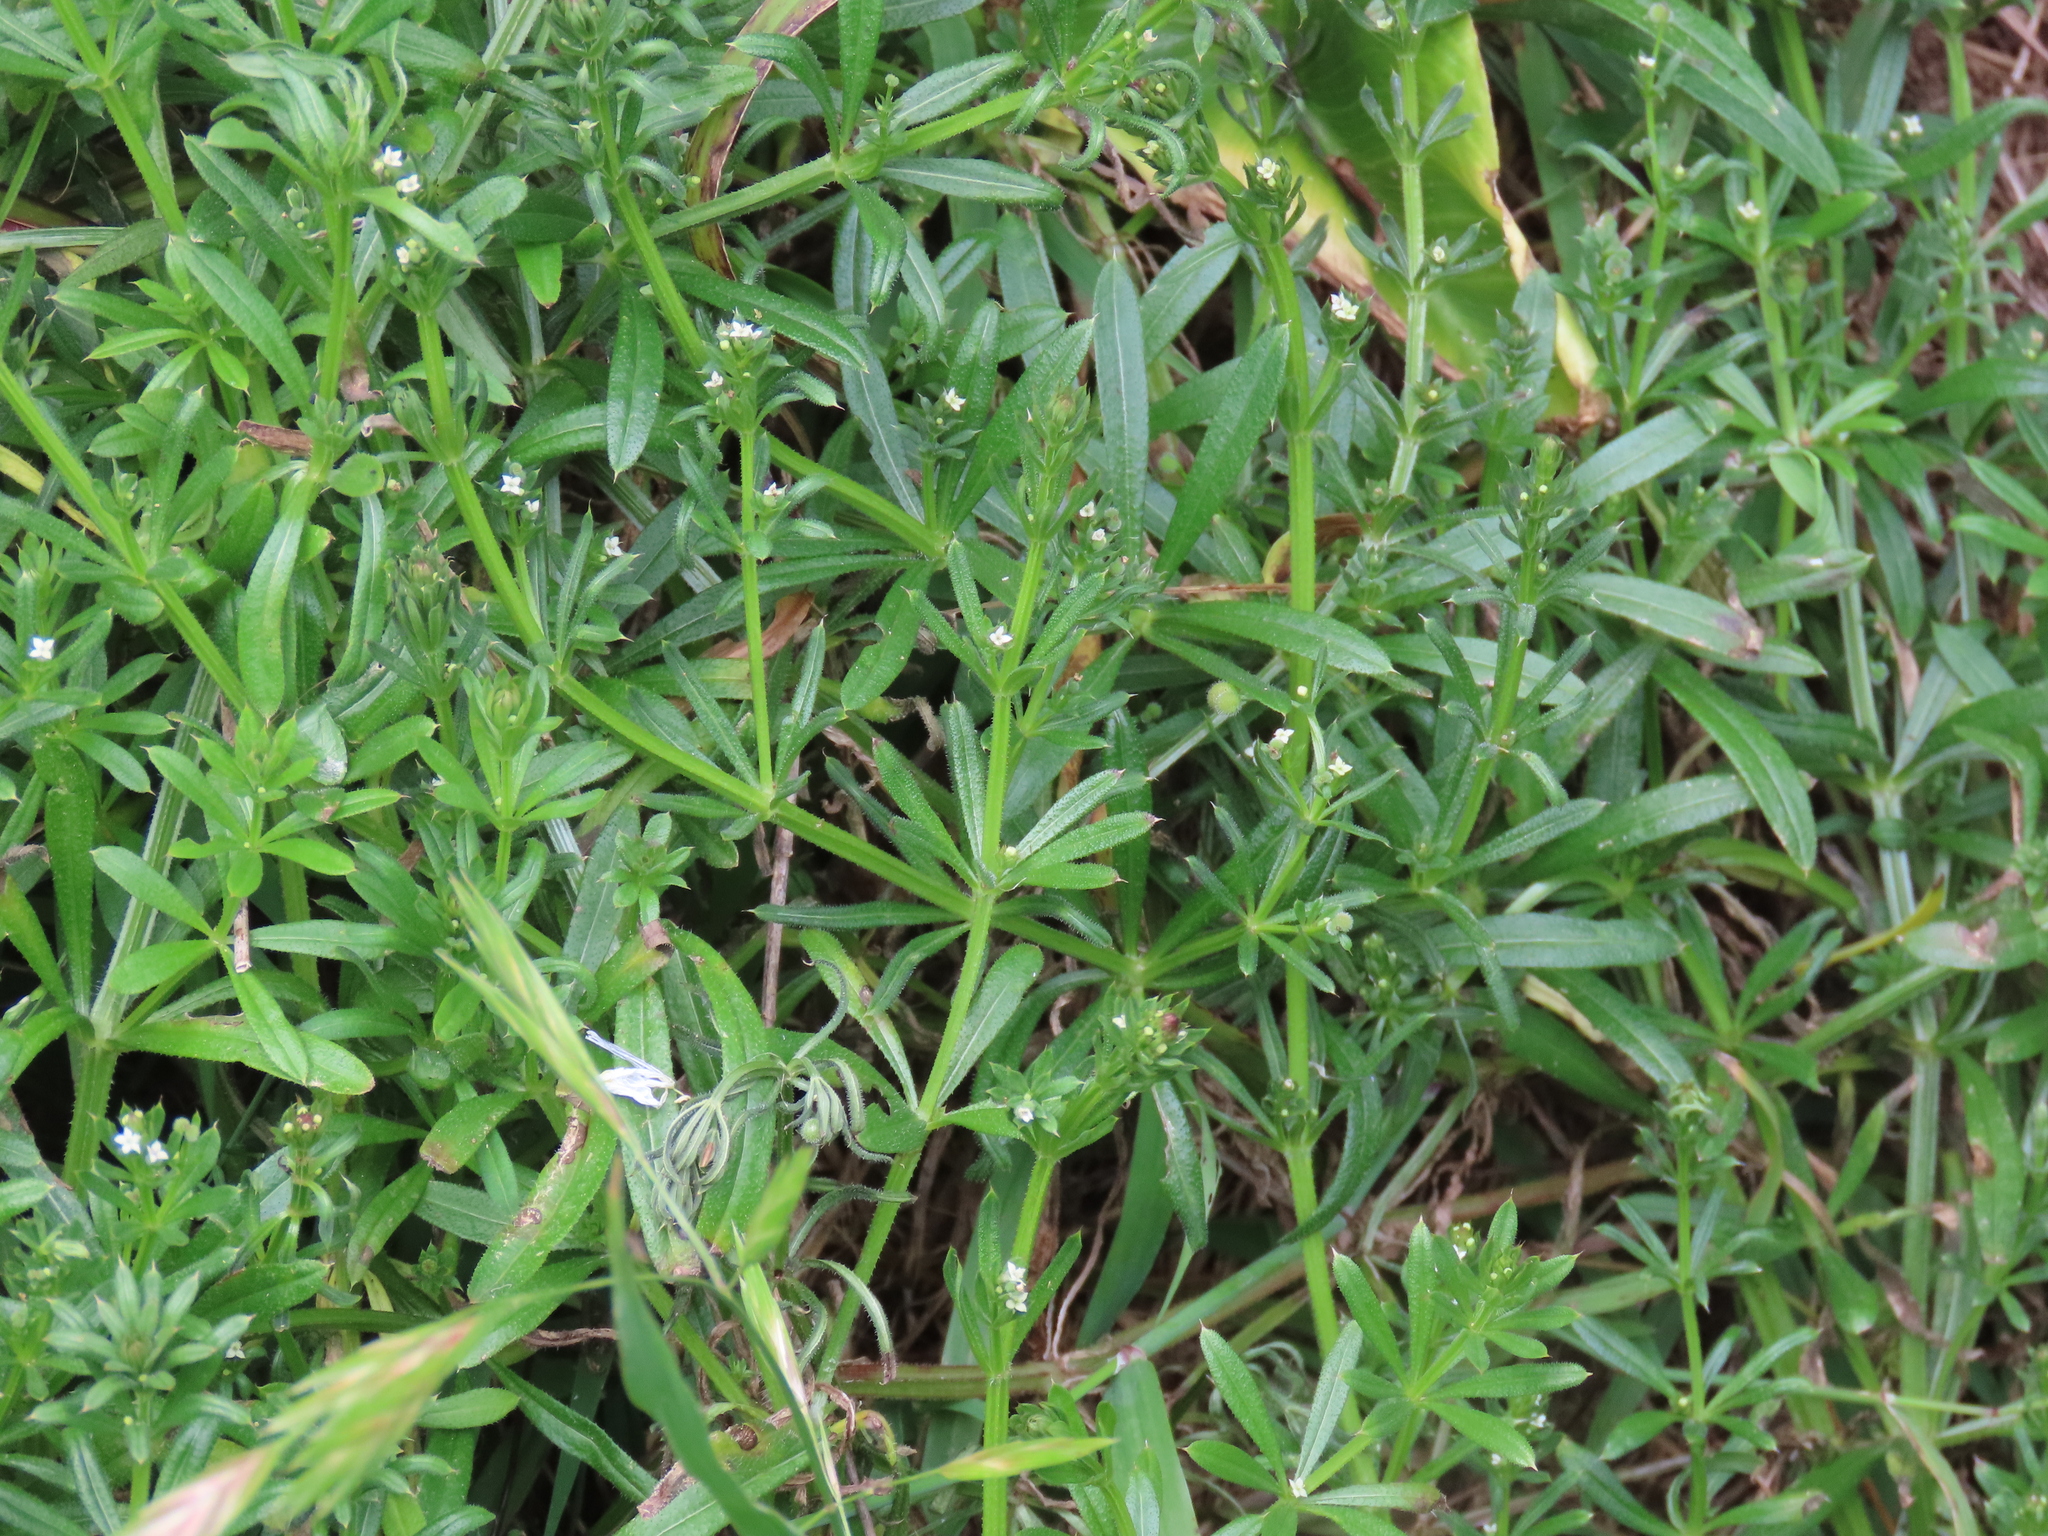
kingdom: Plantae
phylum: Tracheophyta
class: Magnoliopsida
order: Gentianales
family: Rubiaceae
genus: Galium
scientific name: Galium aparine
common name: Cleavers
